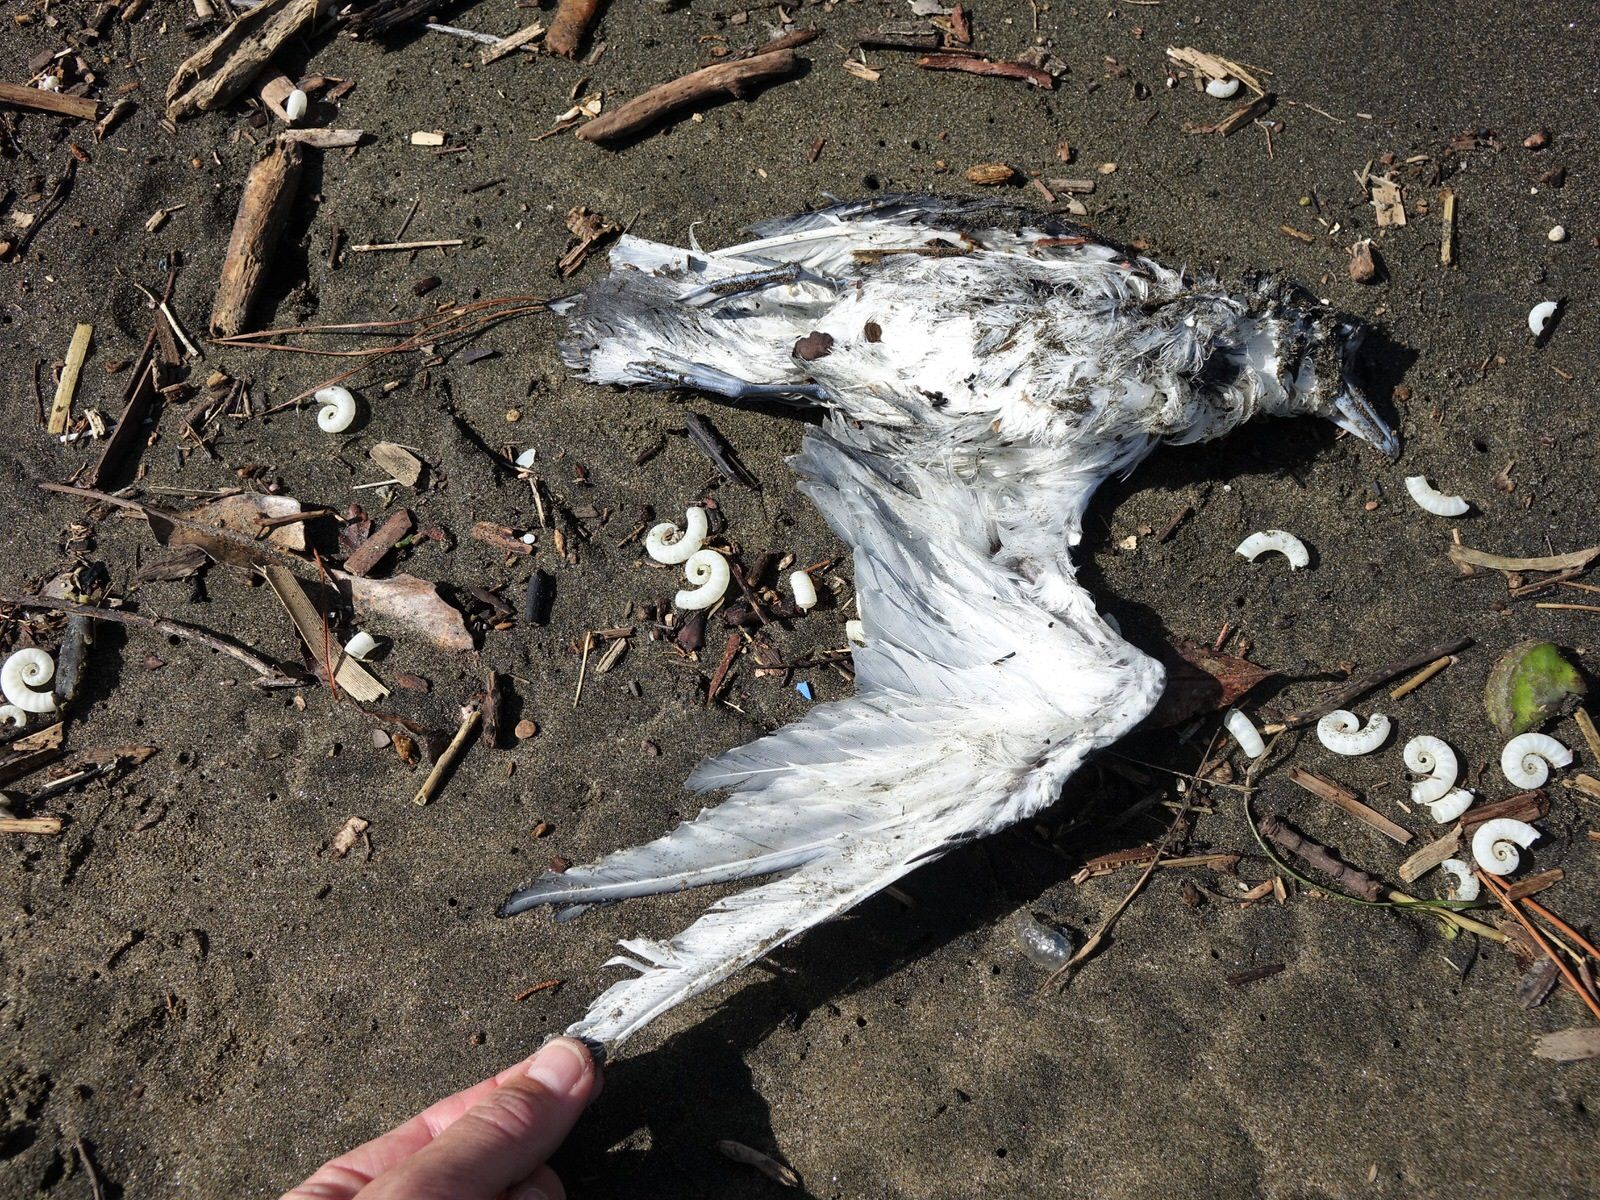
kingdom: Animalia
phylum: Chordata
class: Aves
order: Procellariiformes
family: Procellariidae
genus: Pachyptila
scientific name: Pachyptila turtur
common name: Fairy prion
